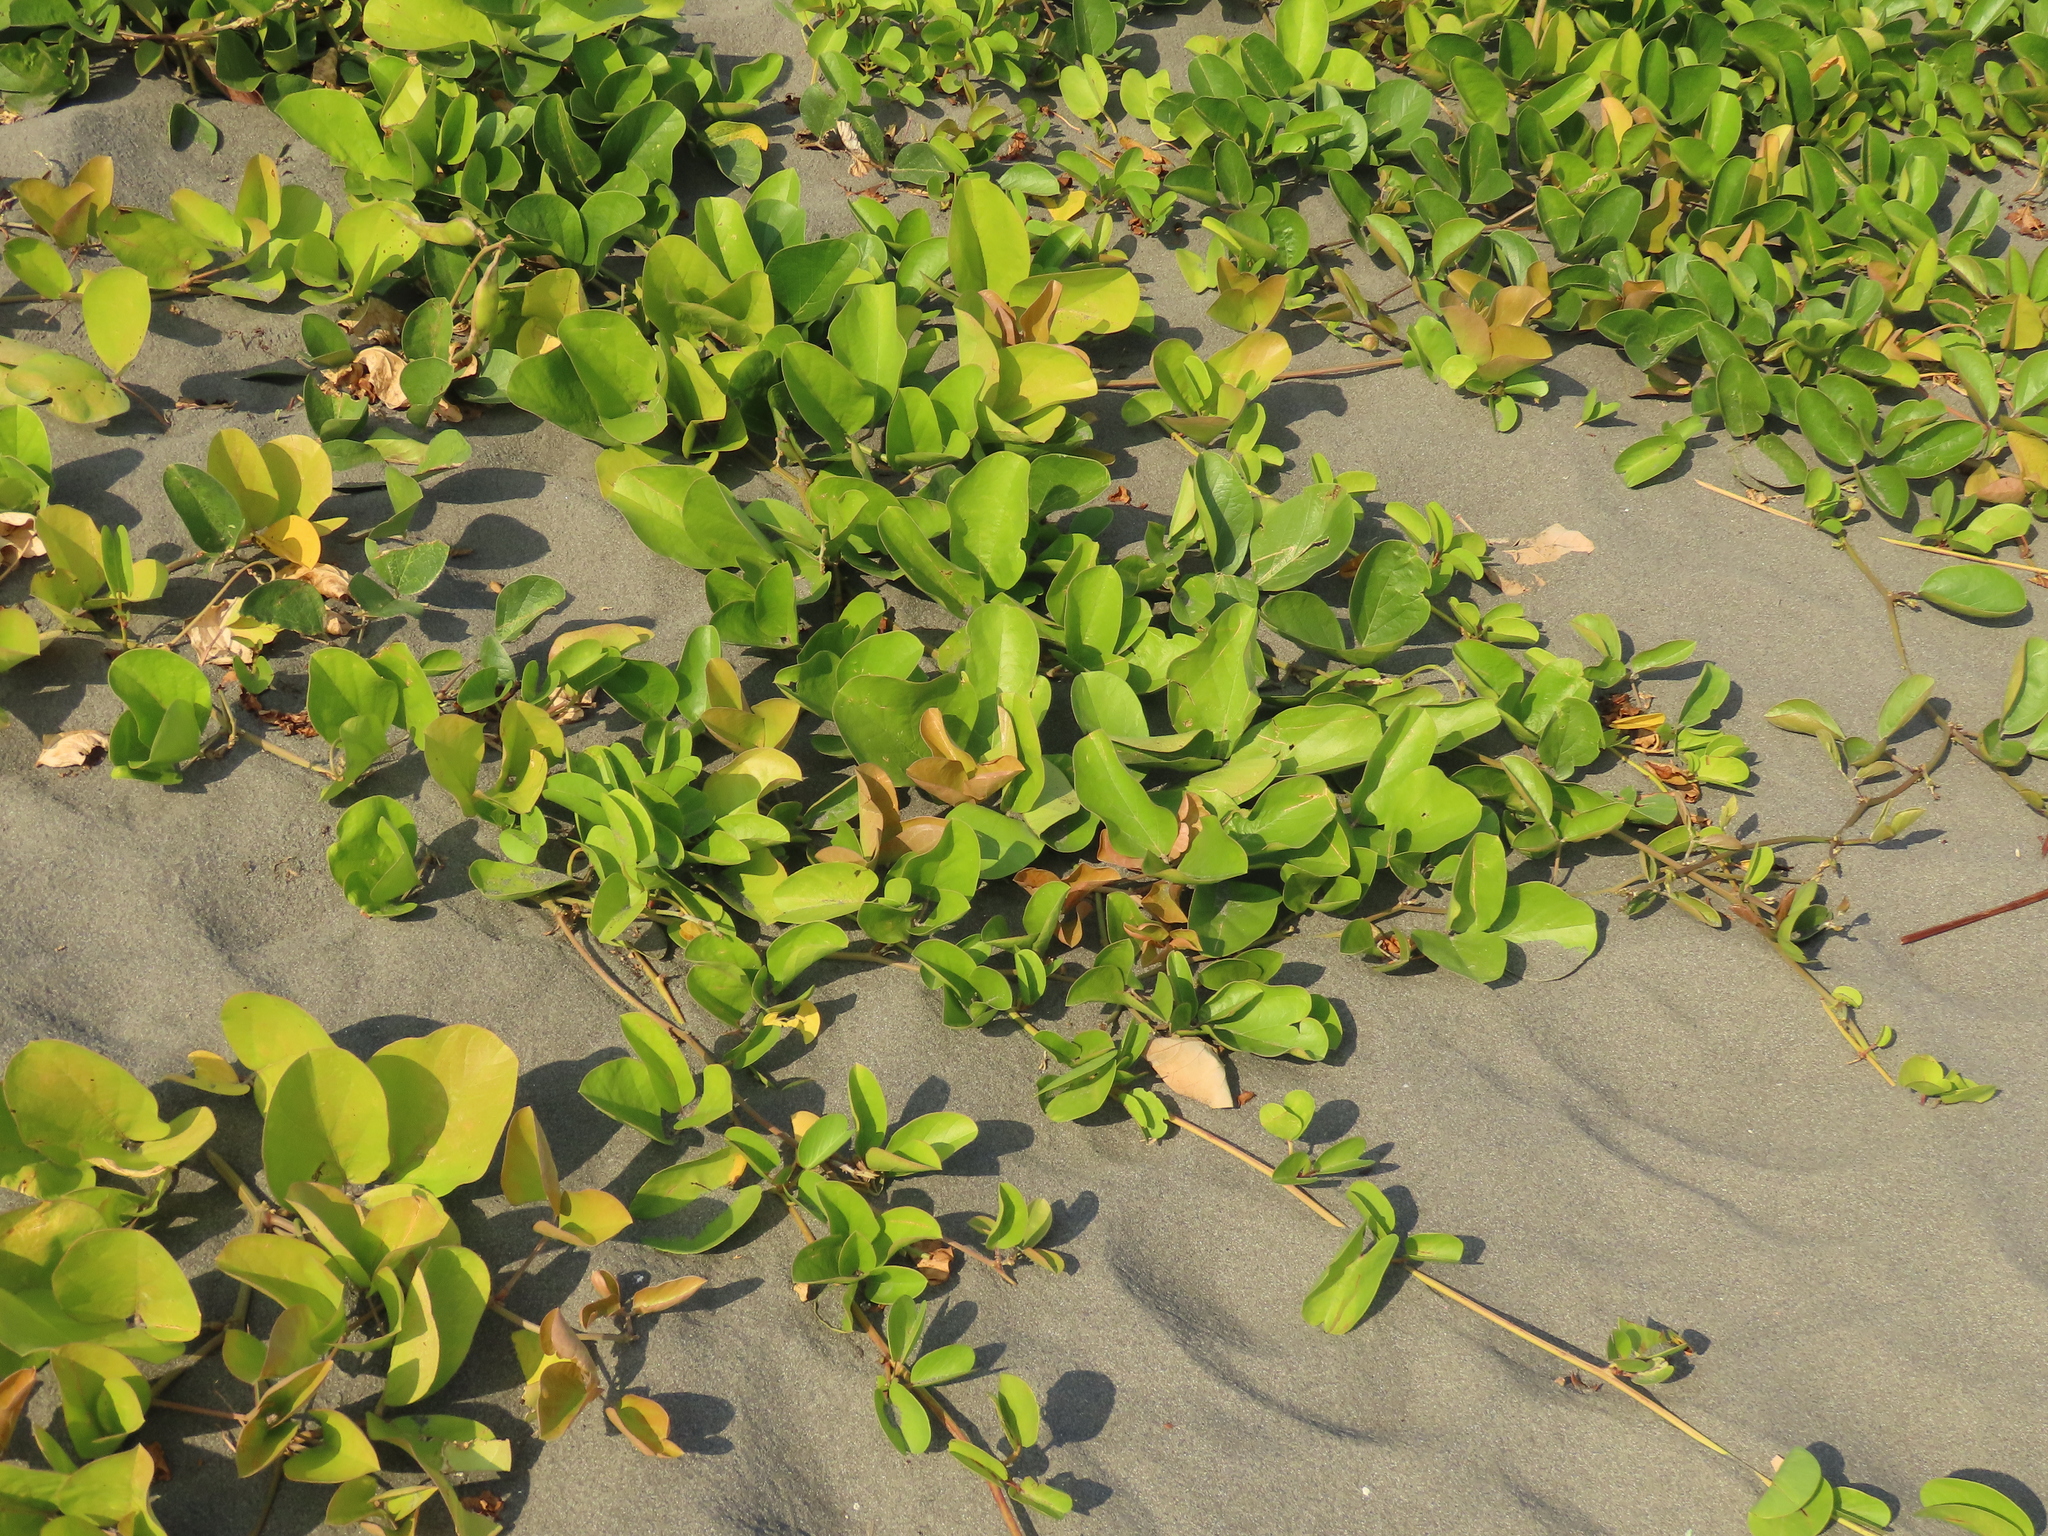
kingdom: Plantae
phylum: Tracheophyta
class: Magnoliopsida
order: Fabales
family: Fabaceae
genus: Canavalia
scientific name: Canavalia rosea
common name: Beach-bean
